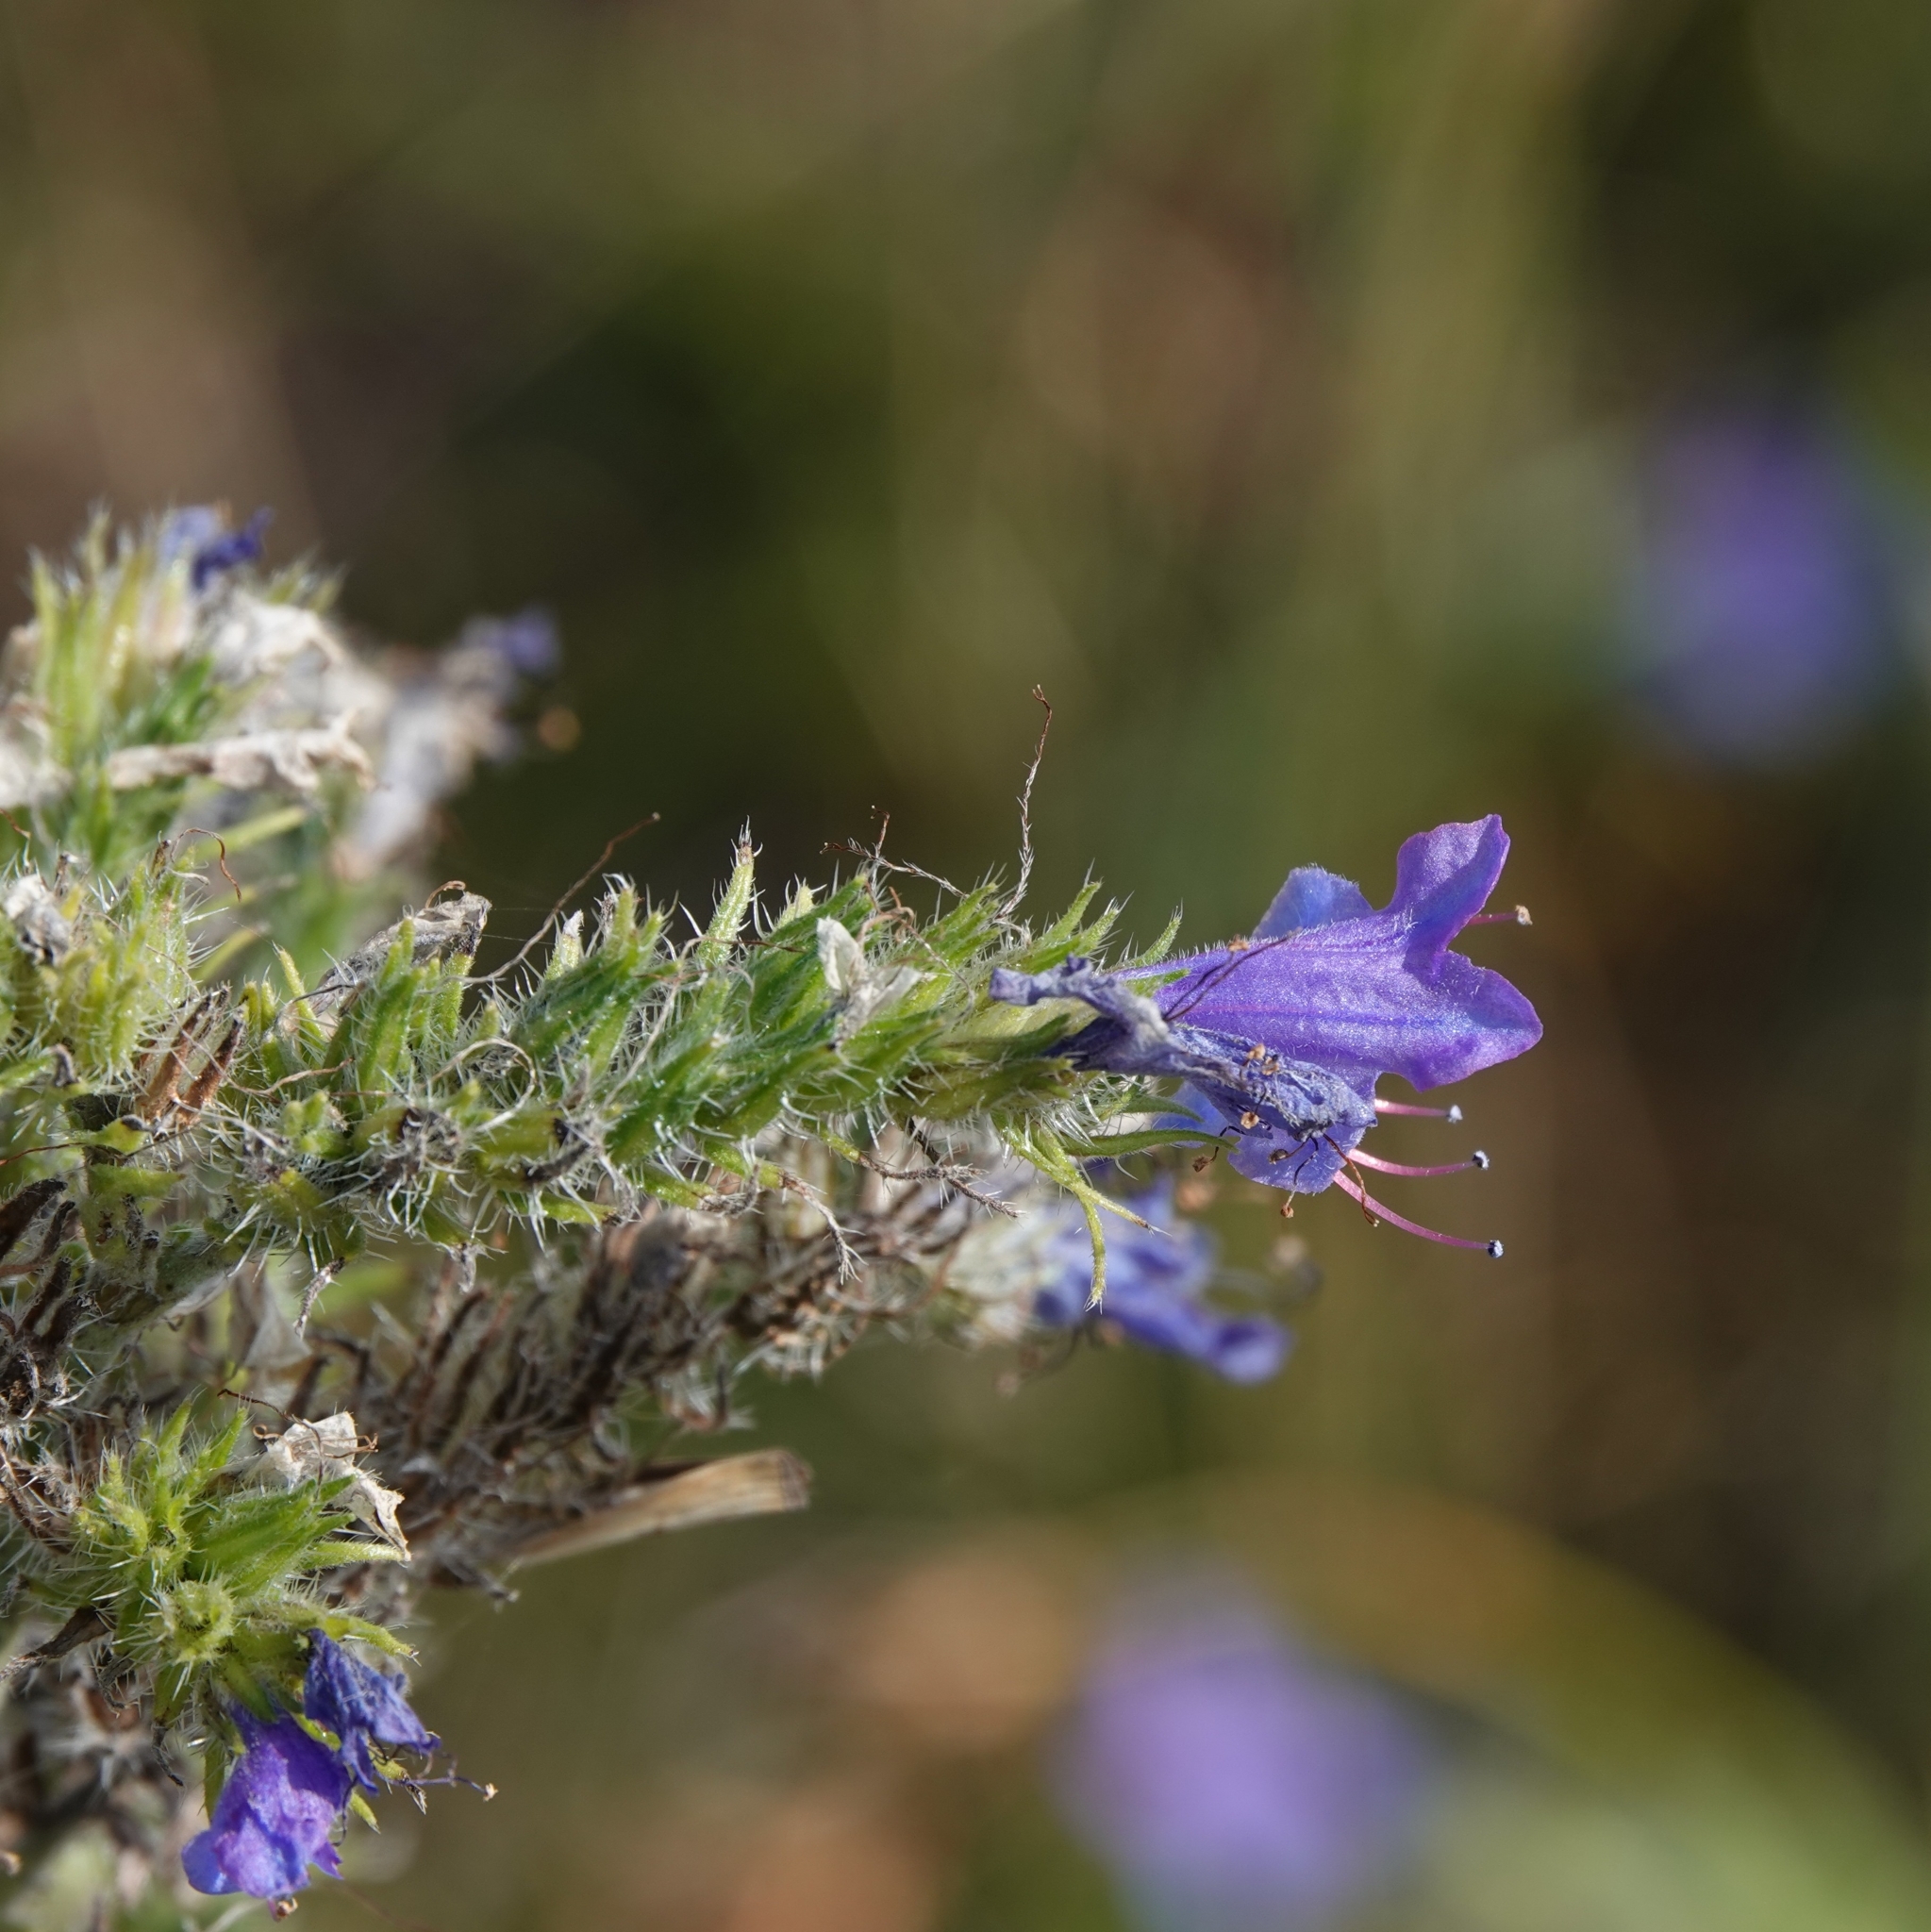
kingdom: Plantae
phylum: Tracheophyta
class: Magnoliopsida
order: Boraginales
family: Boraginaceae
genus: Echium
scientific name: Echium vulgare
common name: Common viper's bugloss
